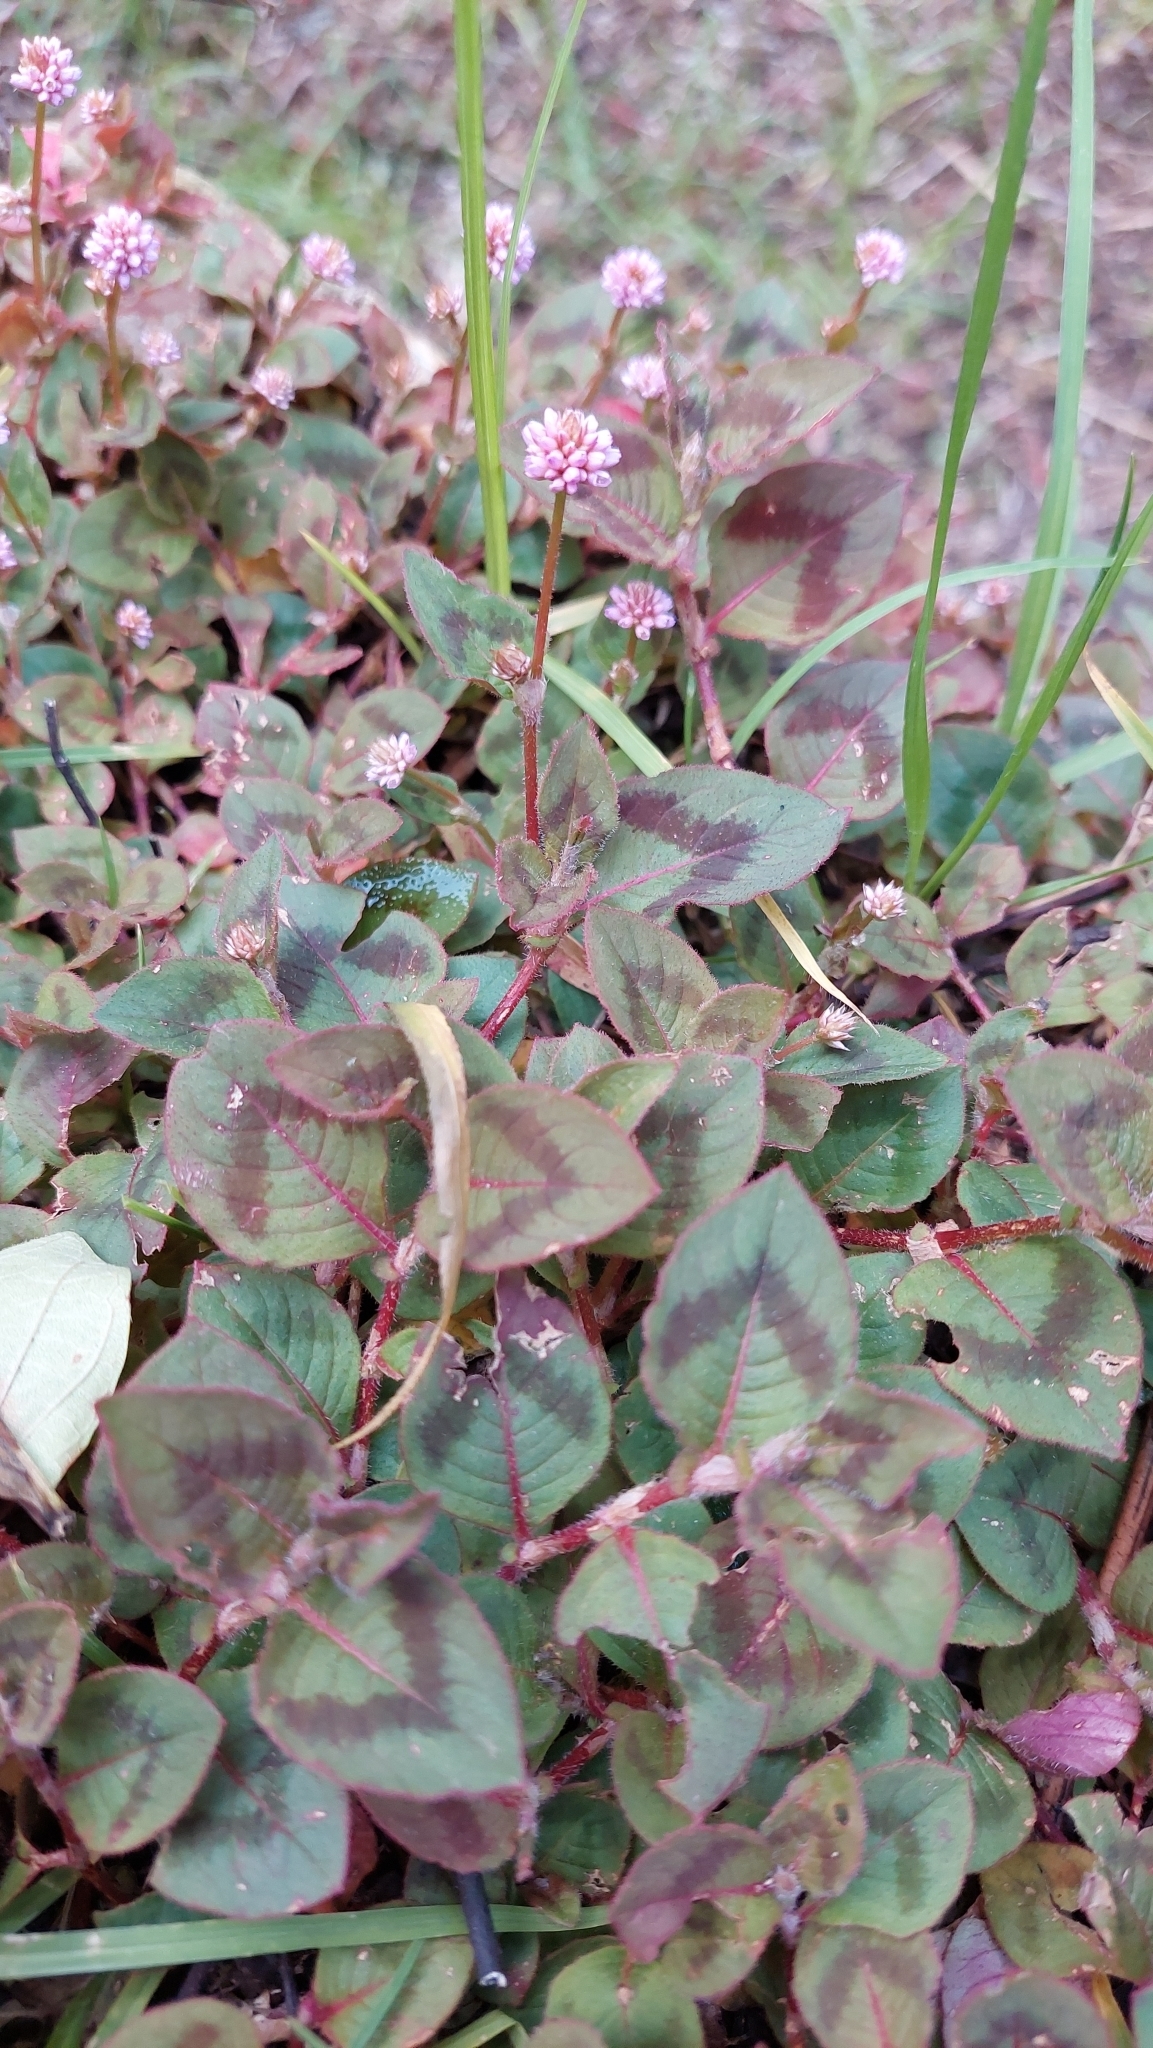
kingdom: Plantae
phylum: Tracheophyta
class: Magnoliopsida
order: Caryophyllales
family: Polygonaceae
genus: Persicaria
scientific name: Persicaria capitata
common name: Pinkhead smartweed
